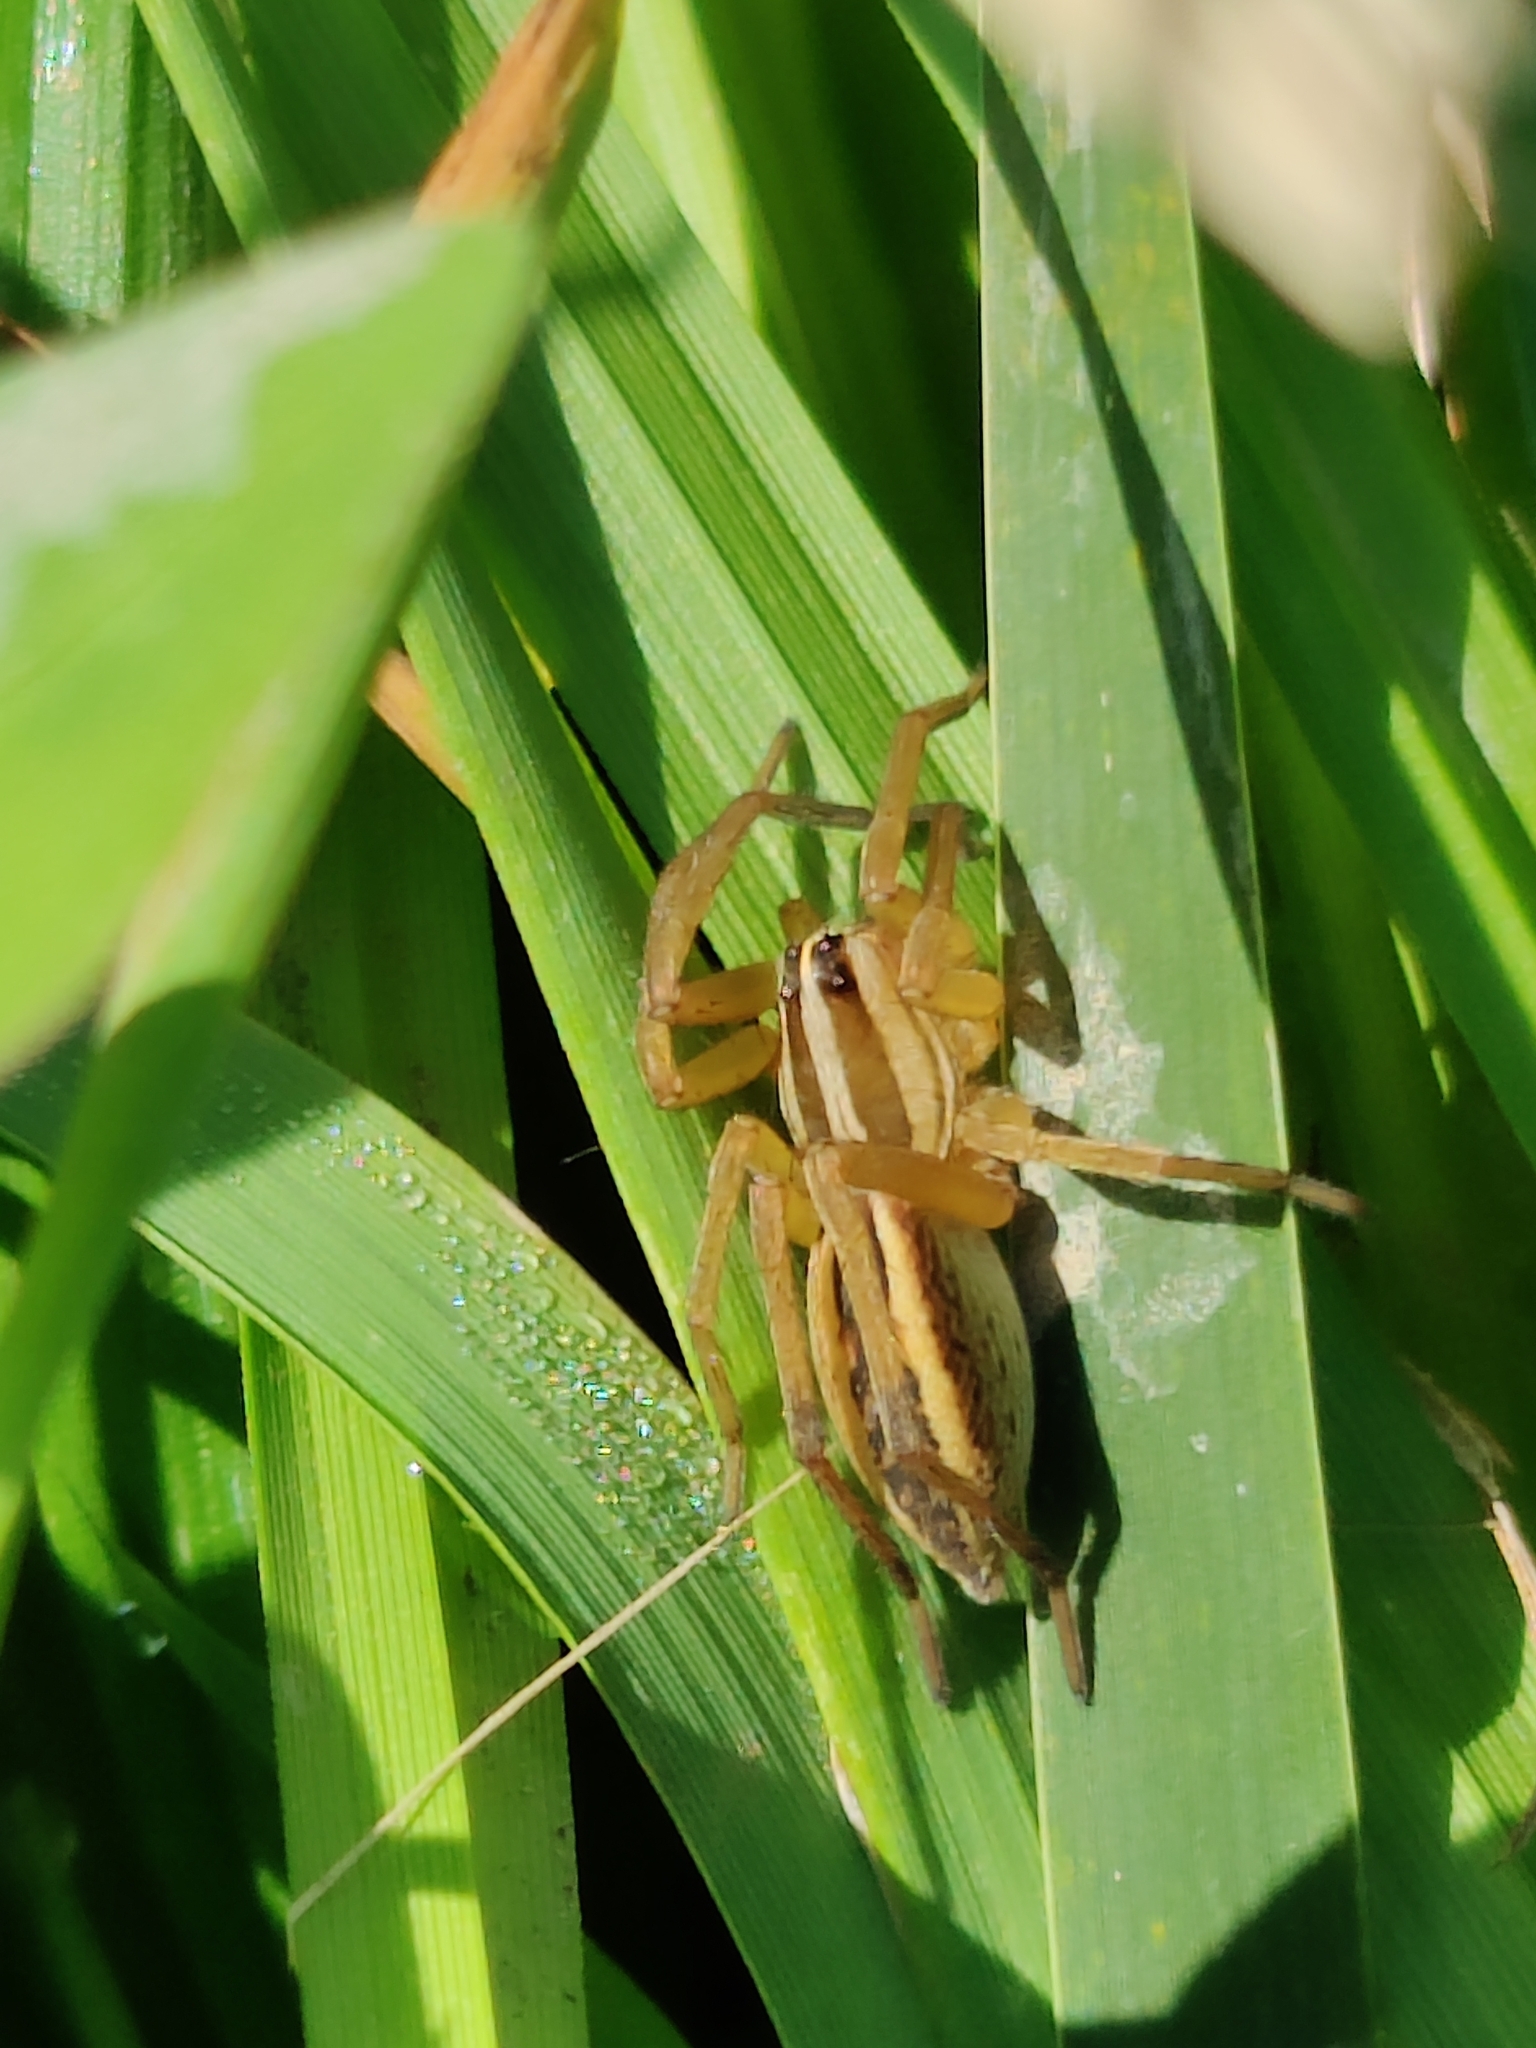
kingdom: Animalia
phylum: Arthropoda
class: Arachnida
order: Araneae
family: Lycosidae
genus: Rabidosa
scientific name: Rabidosa rabida
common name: Rabid wolf spider
